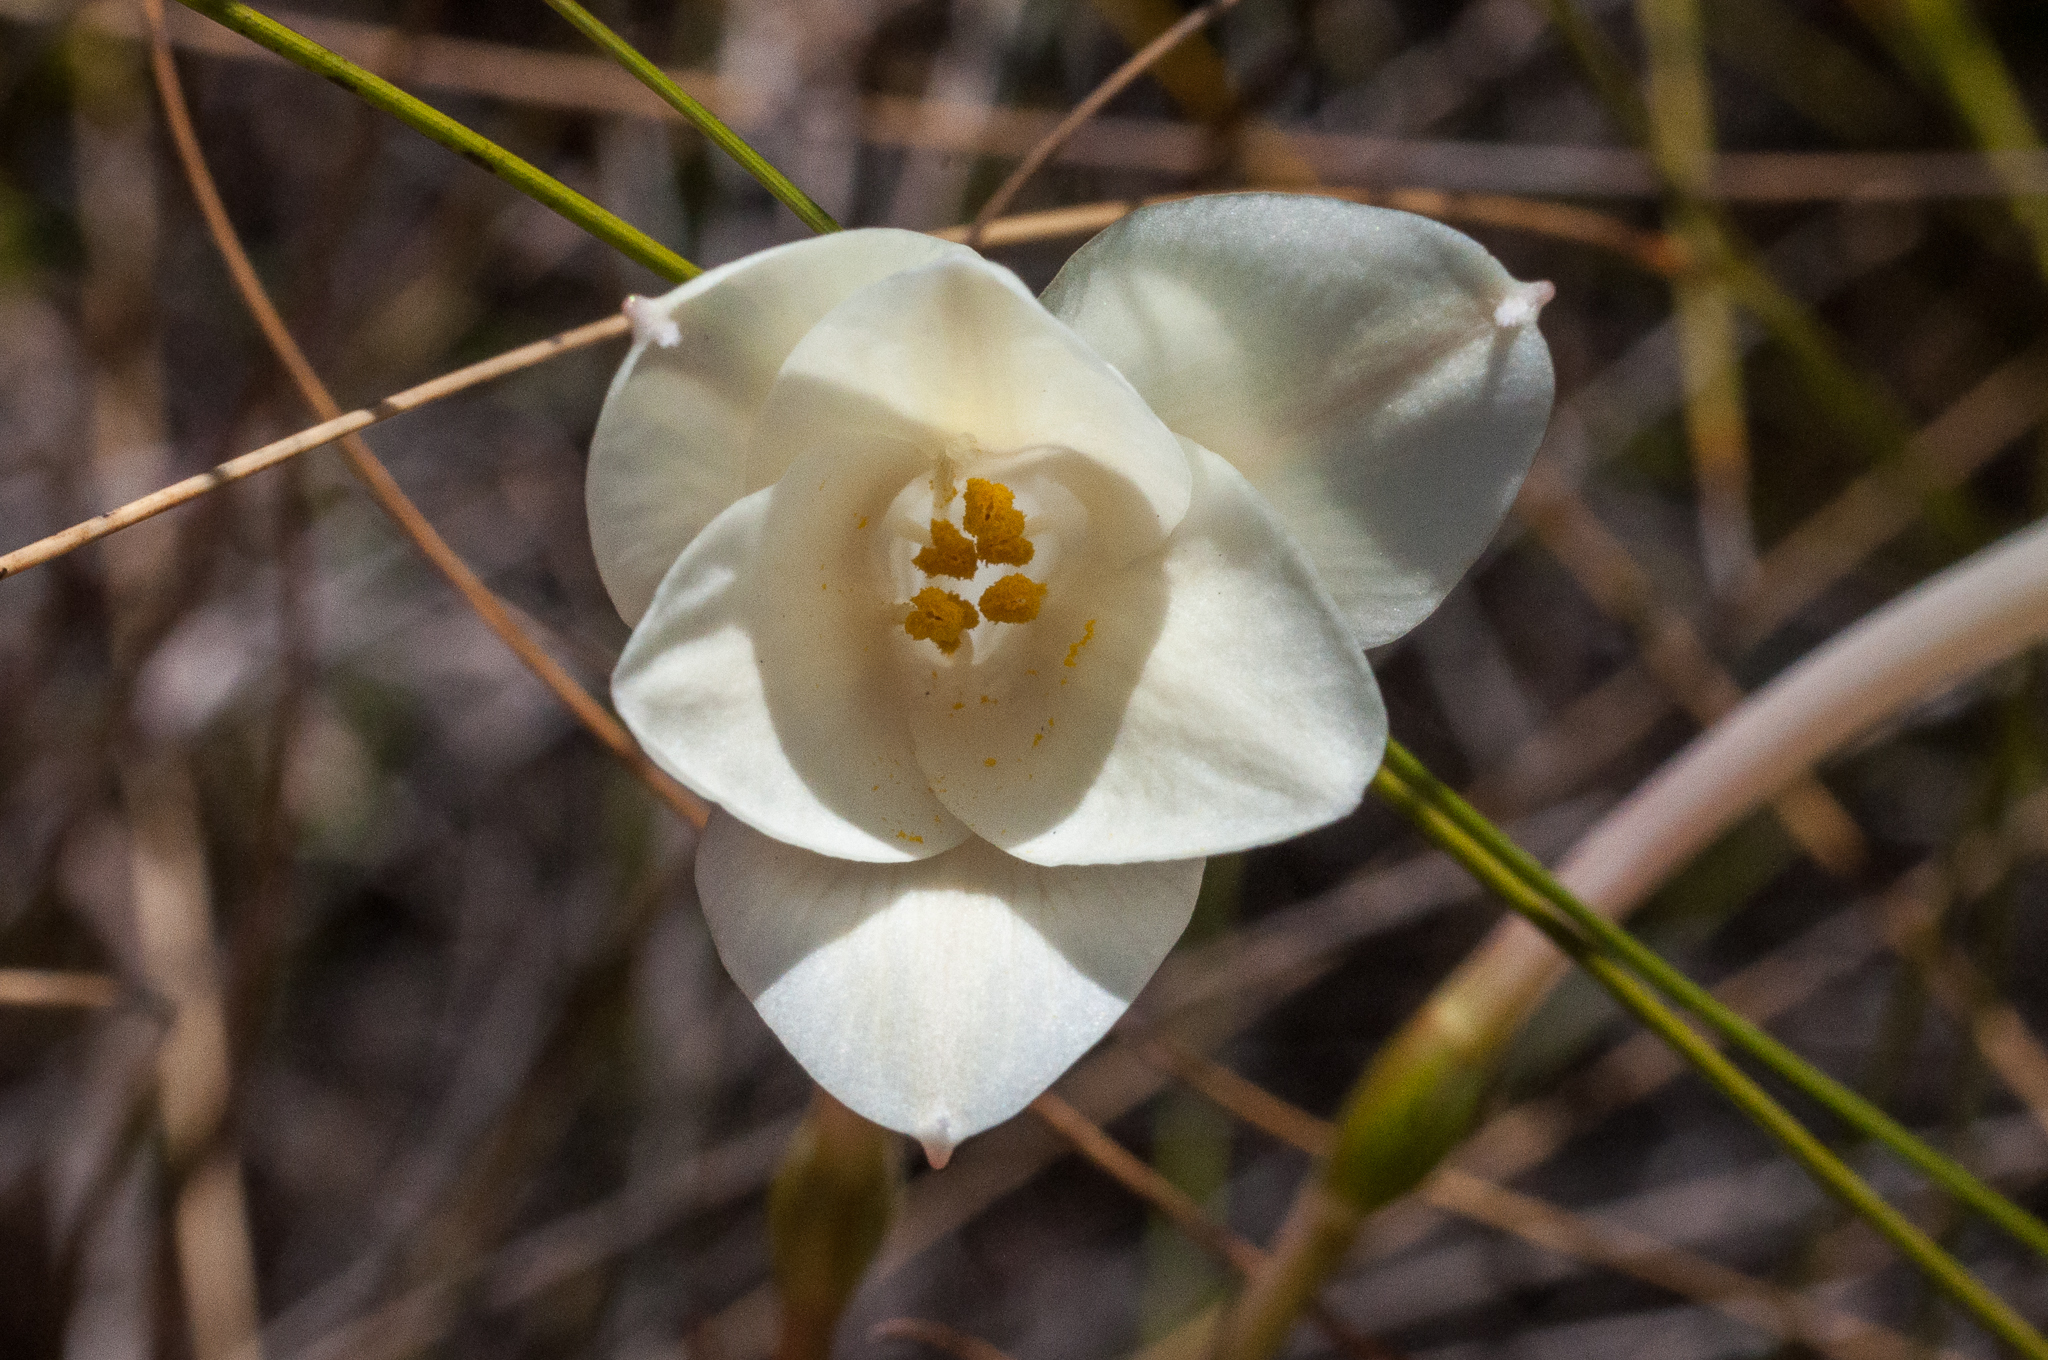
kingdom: Plantae
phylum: Tracheophyta
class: Liliopsida
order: Asparagales
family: Amaryllidaceae
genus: Cyrtanthus
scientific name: Cyrtanthus leucanthus
